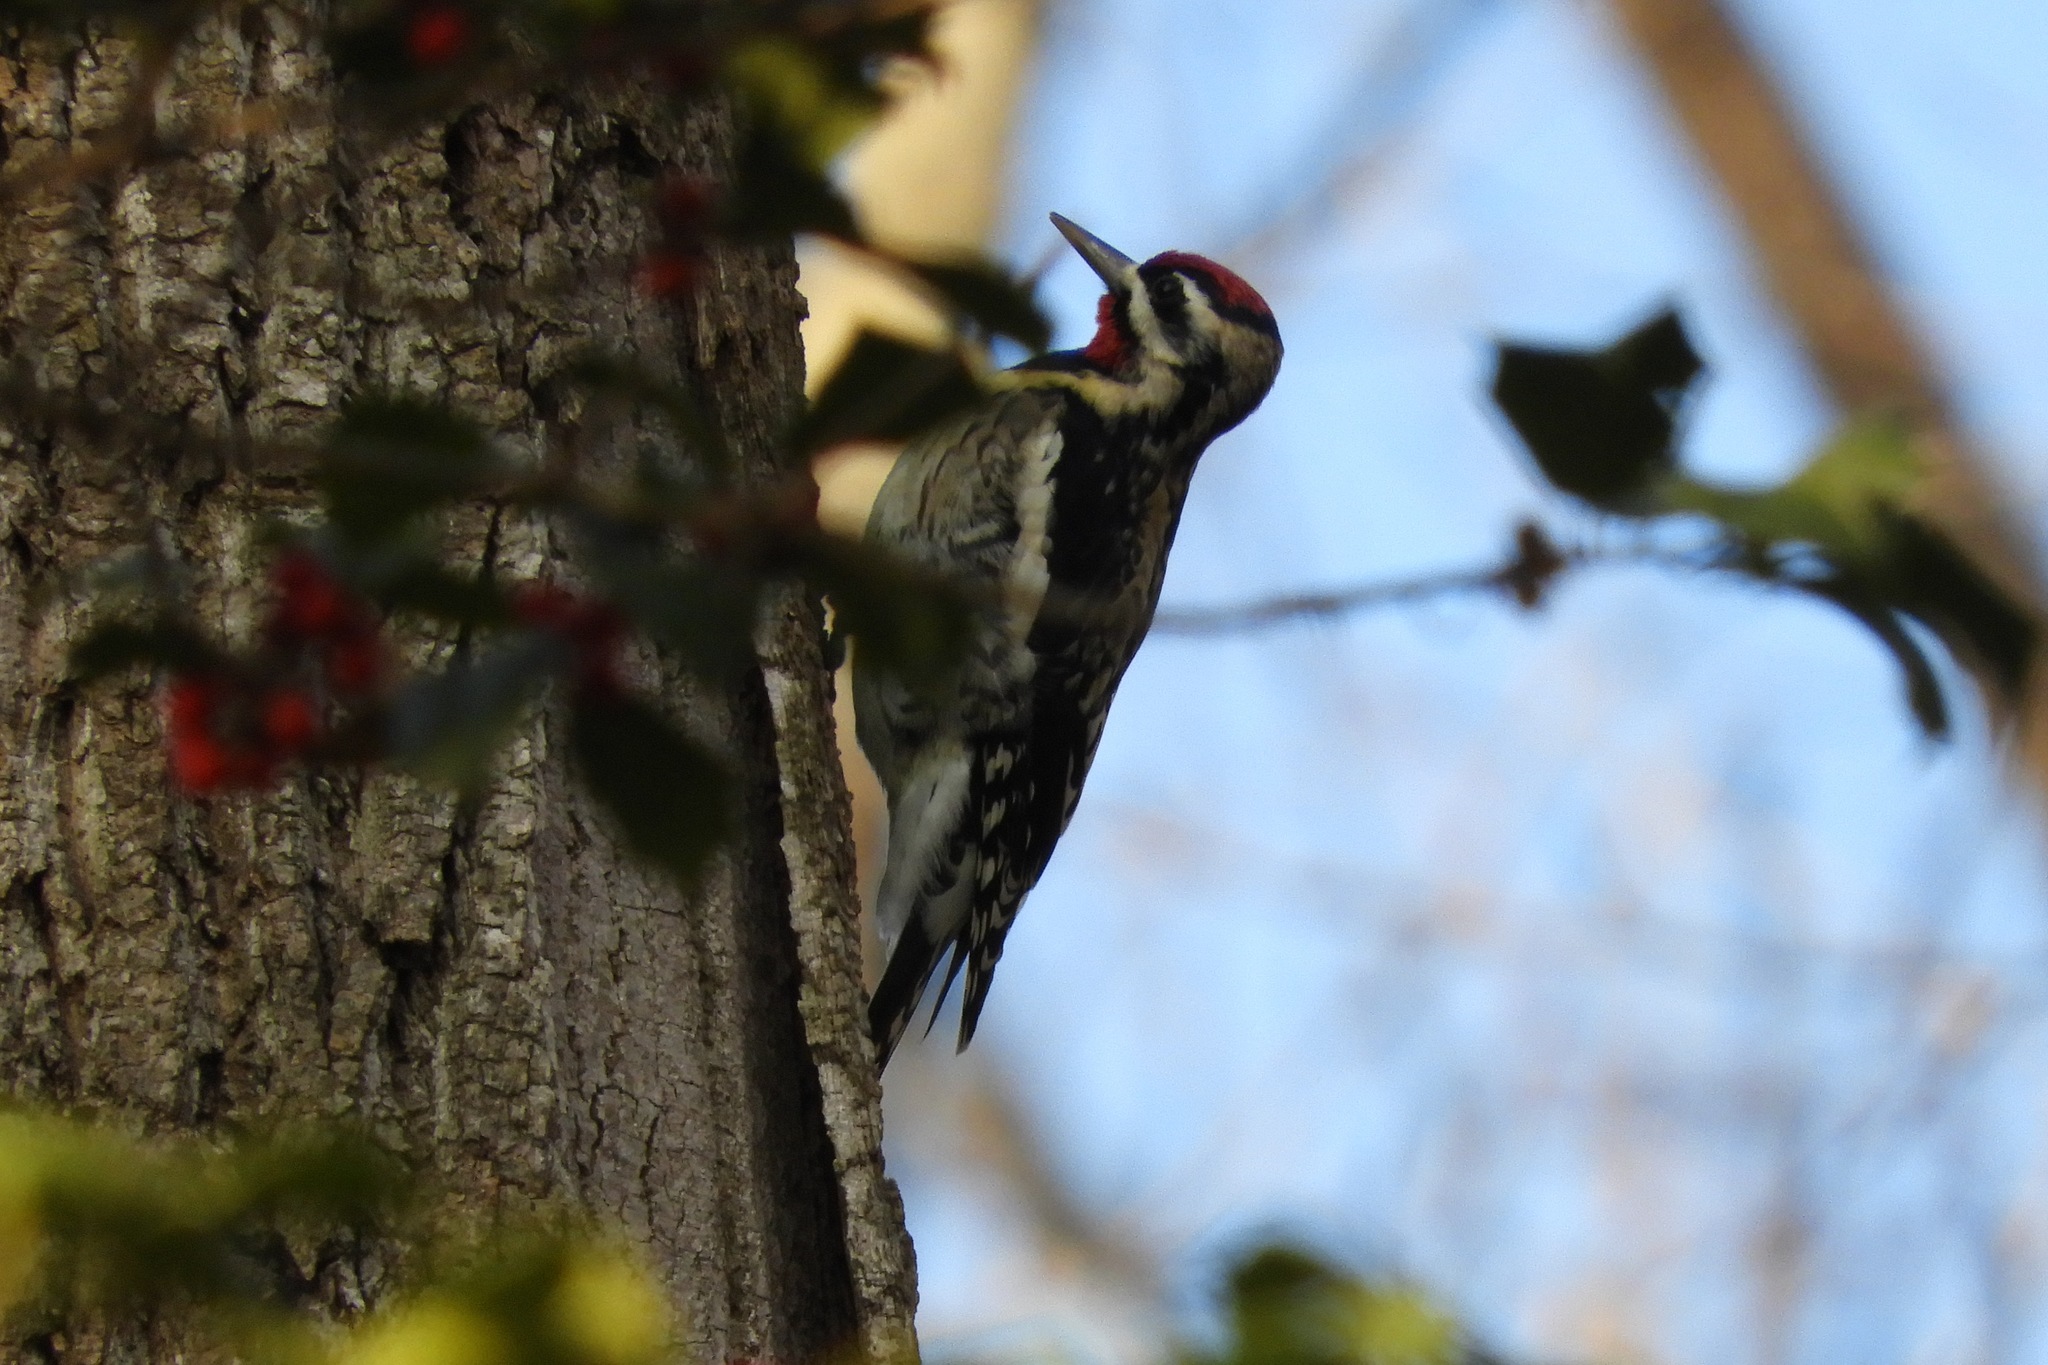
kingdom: Animalia
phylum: Chordata
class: Aves
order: Piciformes
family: Picidae
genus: Sphyrapicus
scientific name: Sphyrapicus varius
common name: Yellow-bellied sapsucker
